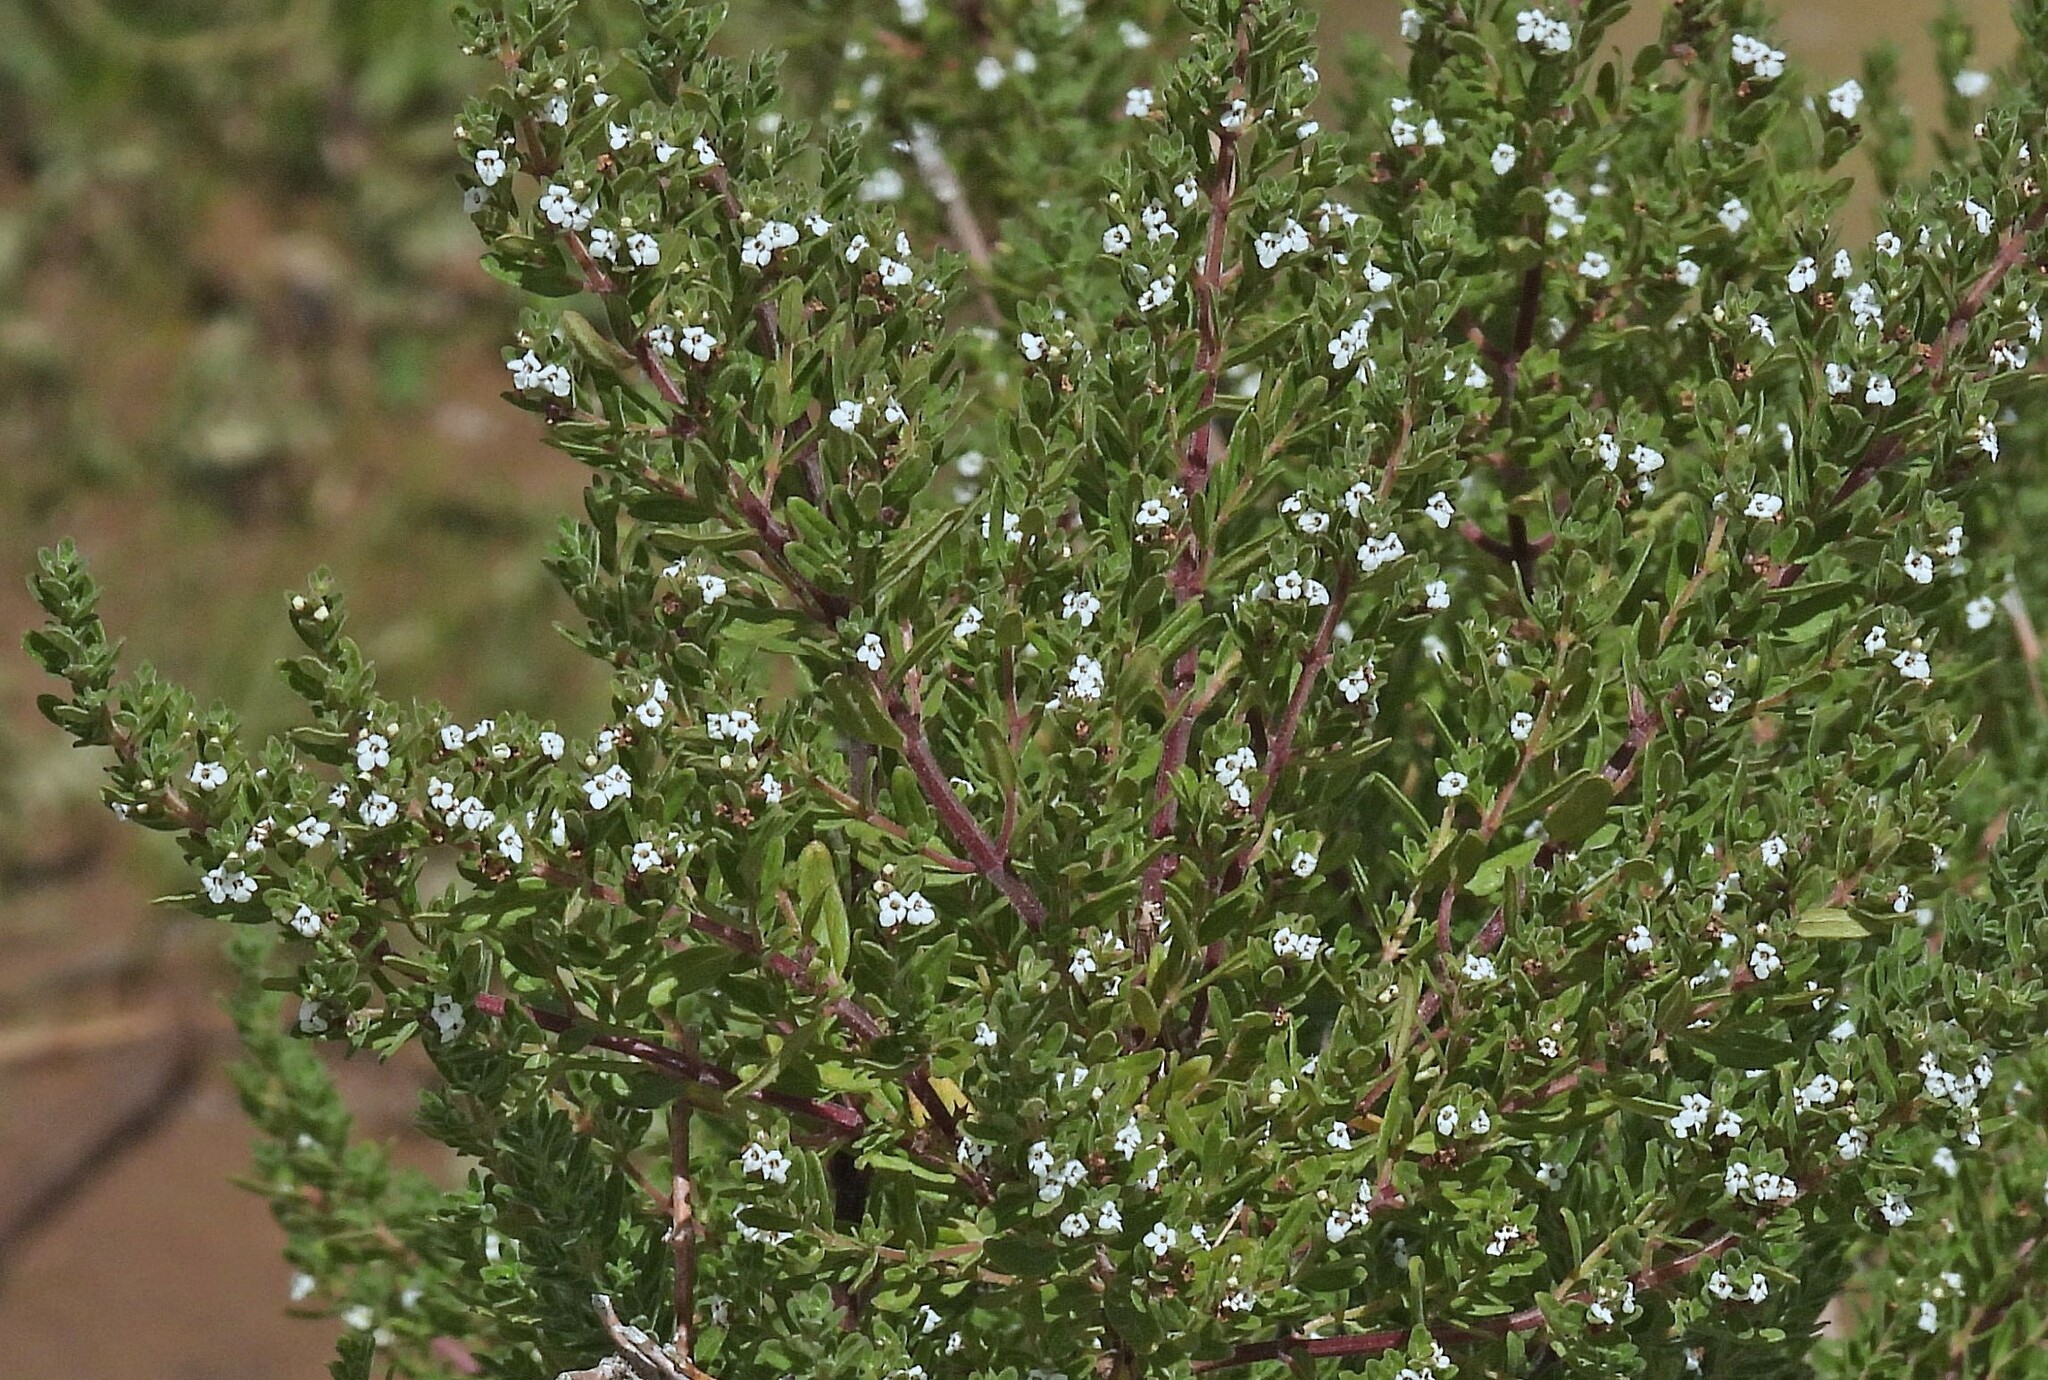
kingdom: Plantae
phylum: Tracheophyta
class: Magnoliopsida
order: Lamiales
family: Lamiaceae
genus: Clinopodium
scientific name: Clinopodium gilliesii
